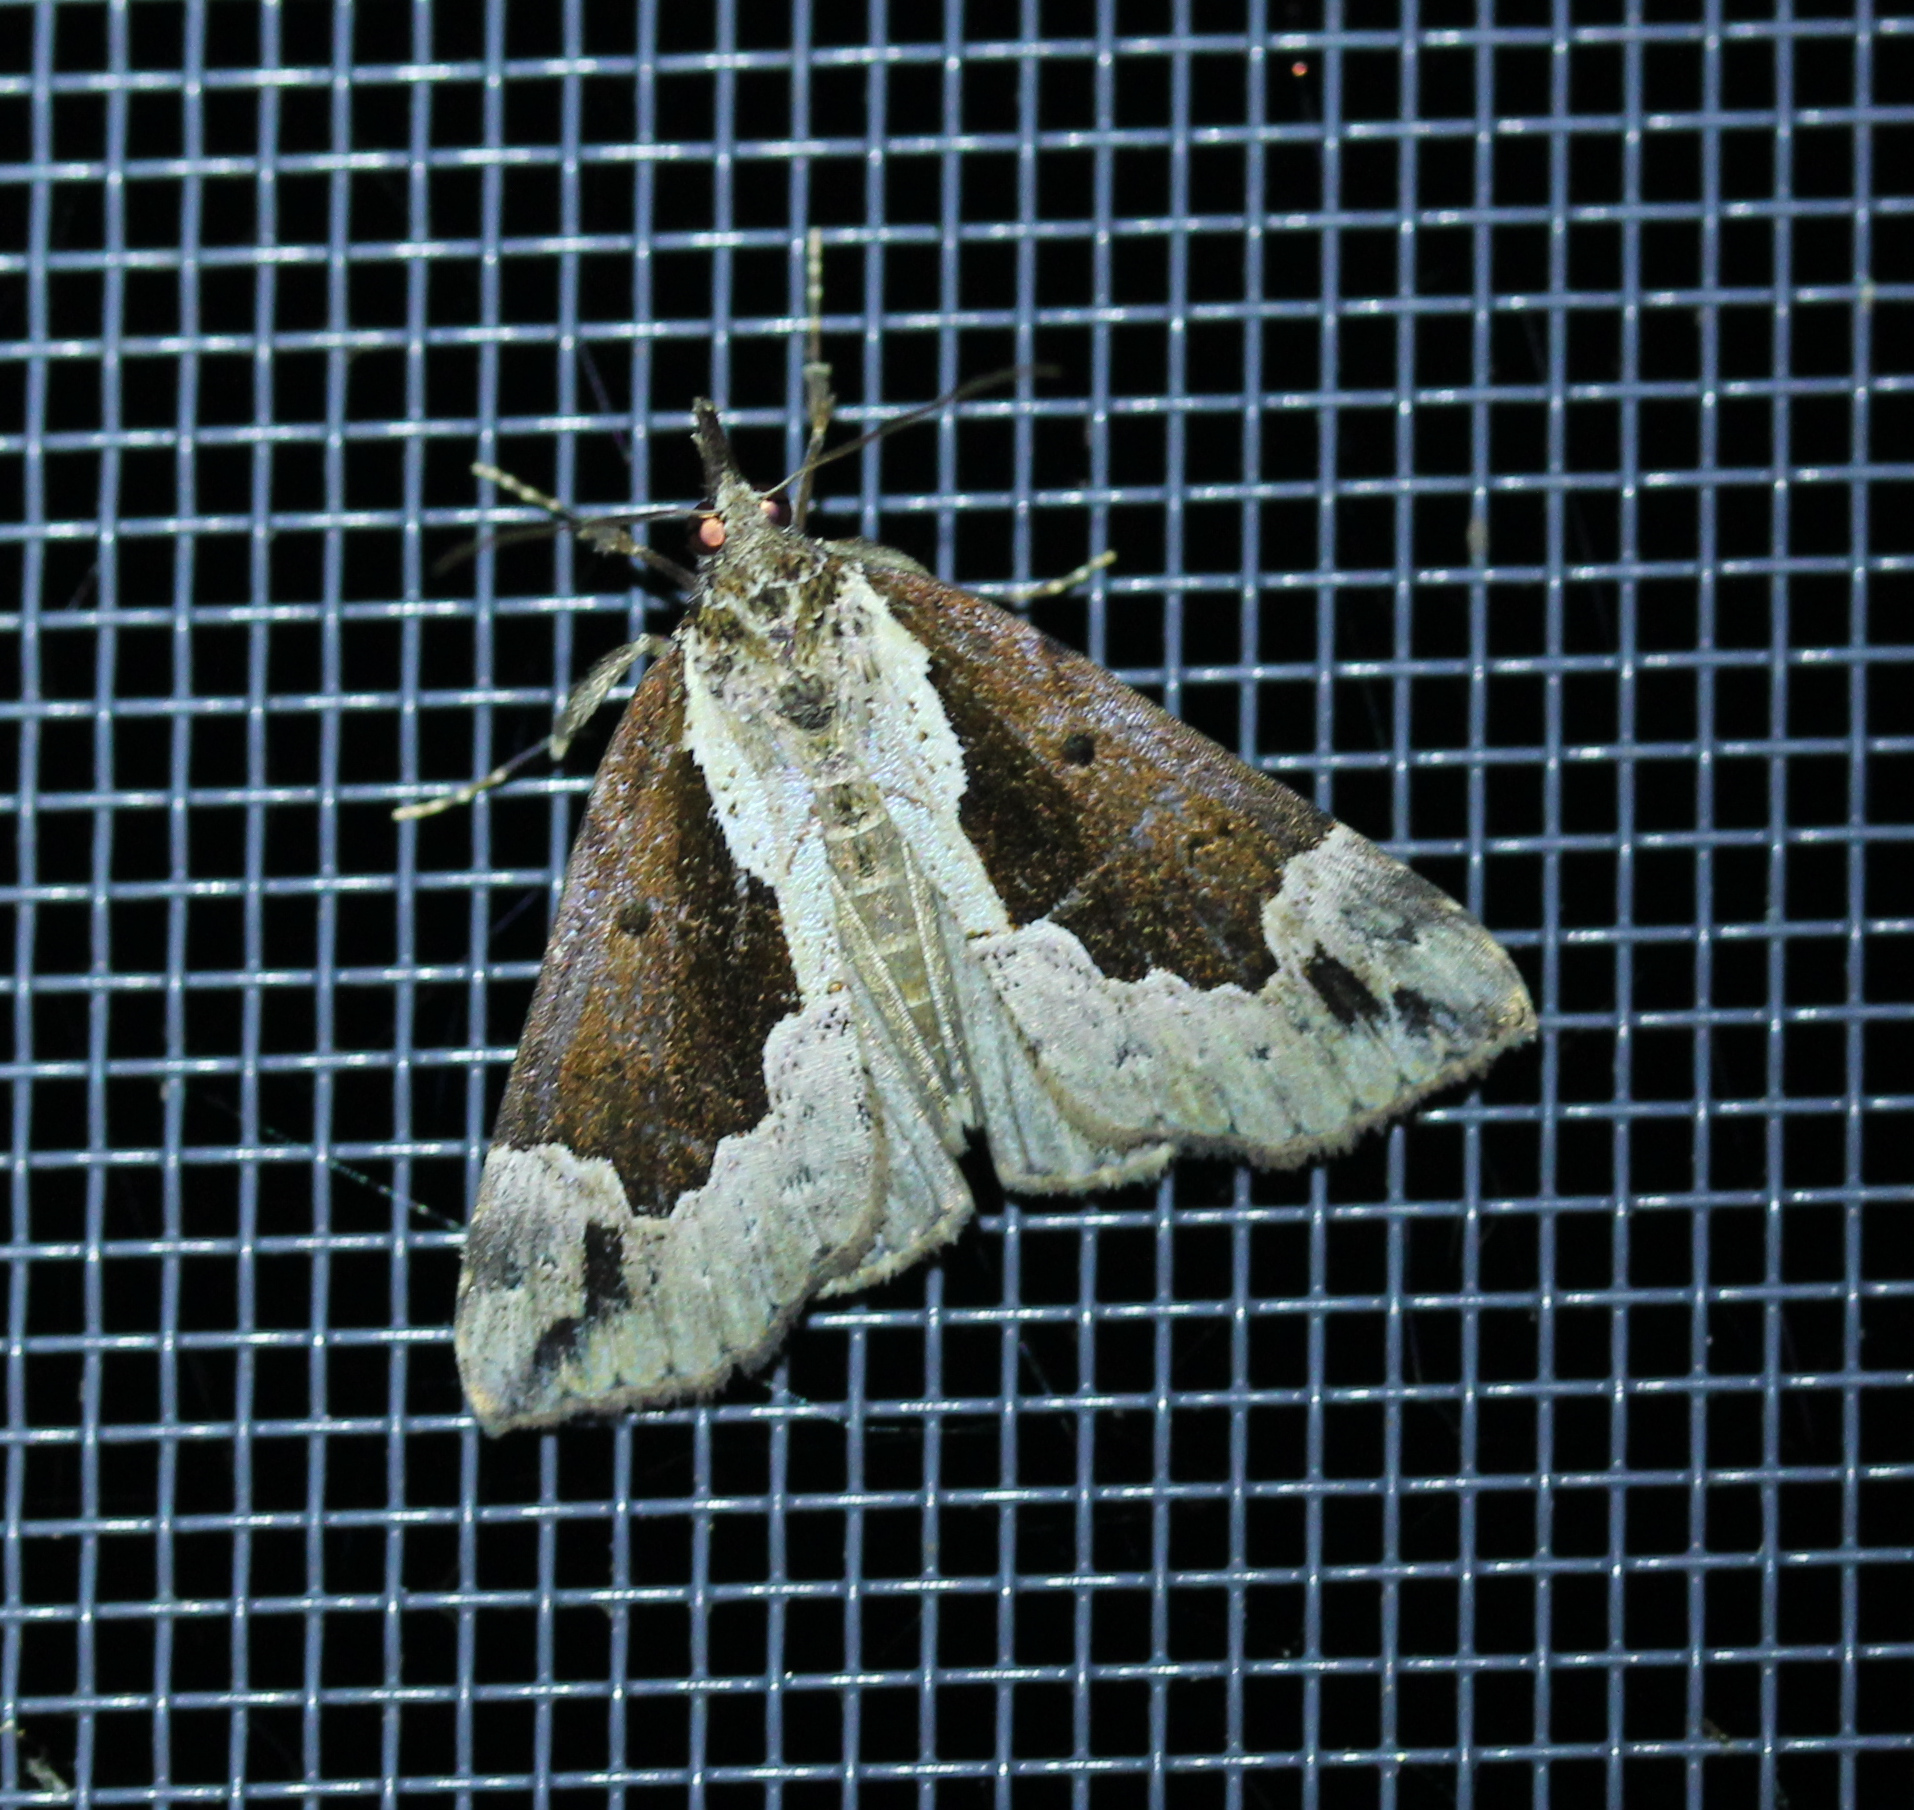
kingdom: Animalia
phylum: Arthropoda
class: Insecta
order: Lepidoptera
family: Erebidae
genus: Hypena
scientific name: Hypena baltimoralis
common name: Baltimore snout
